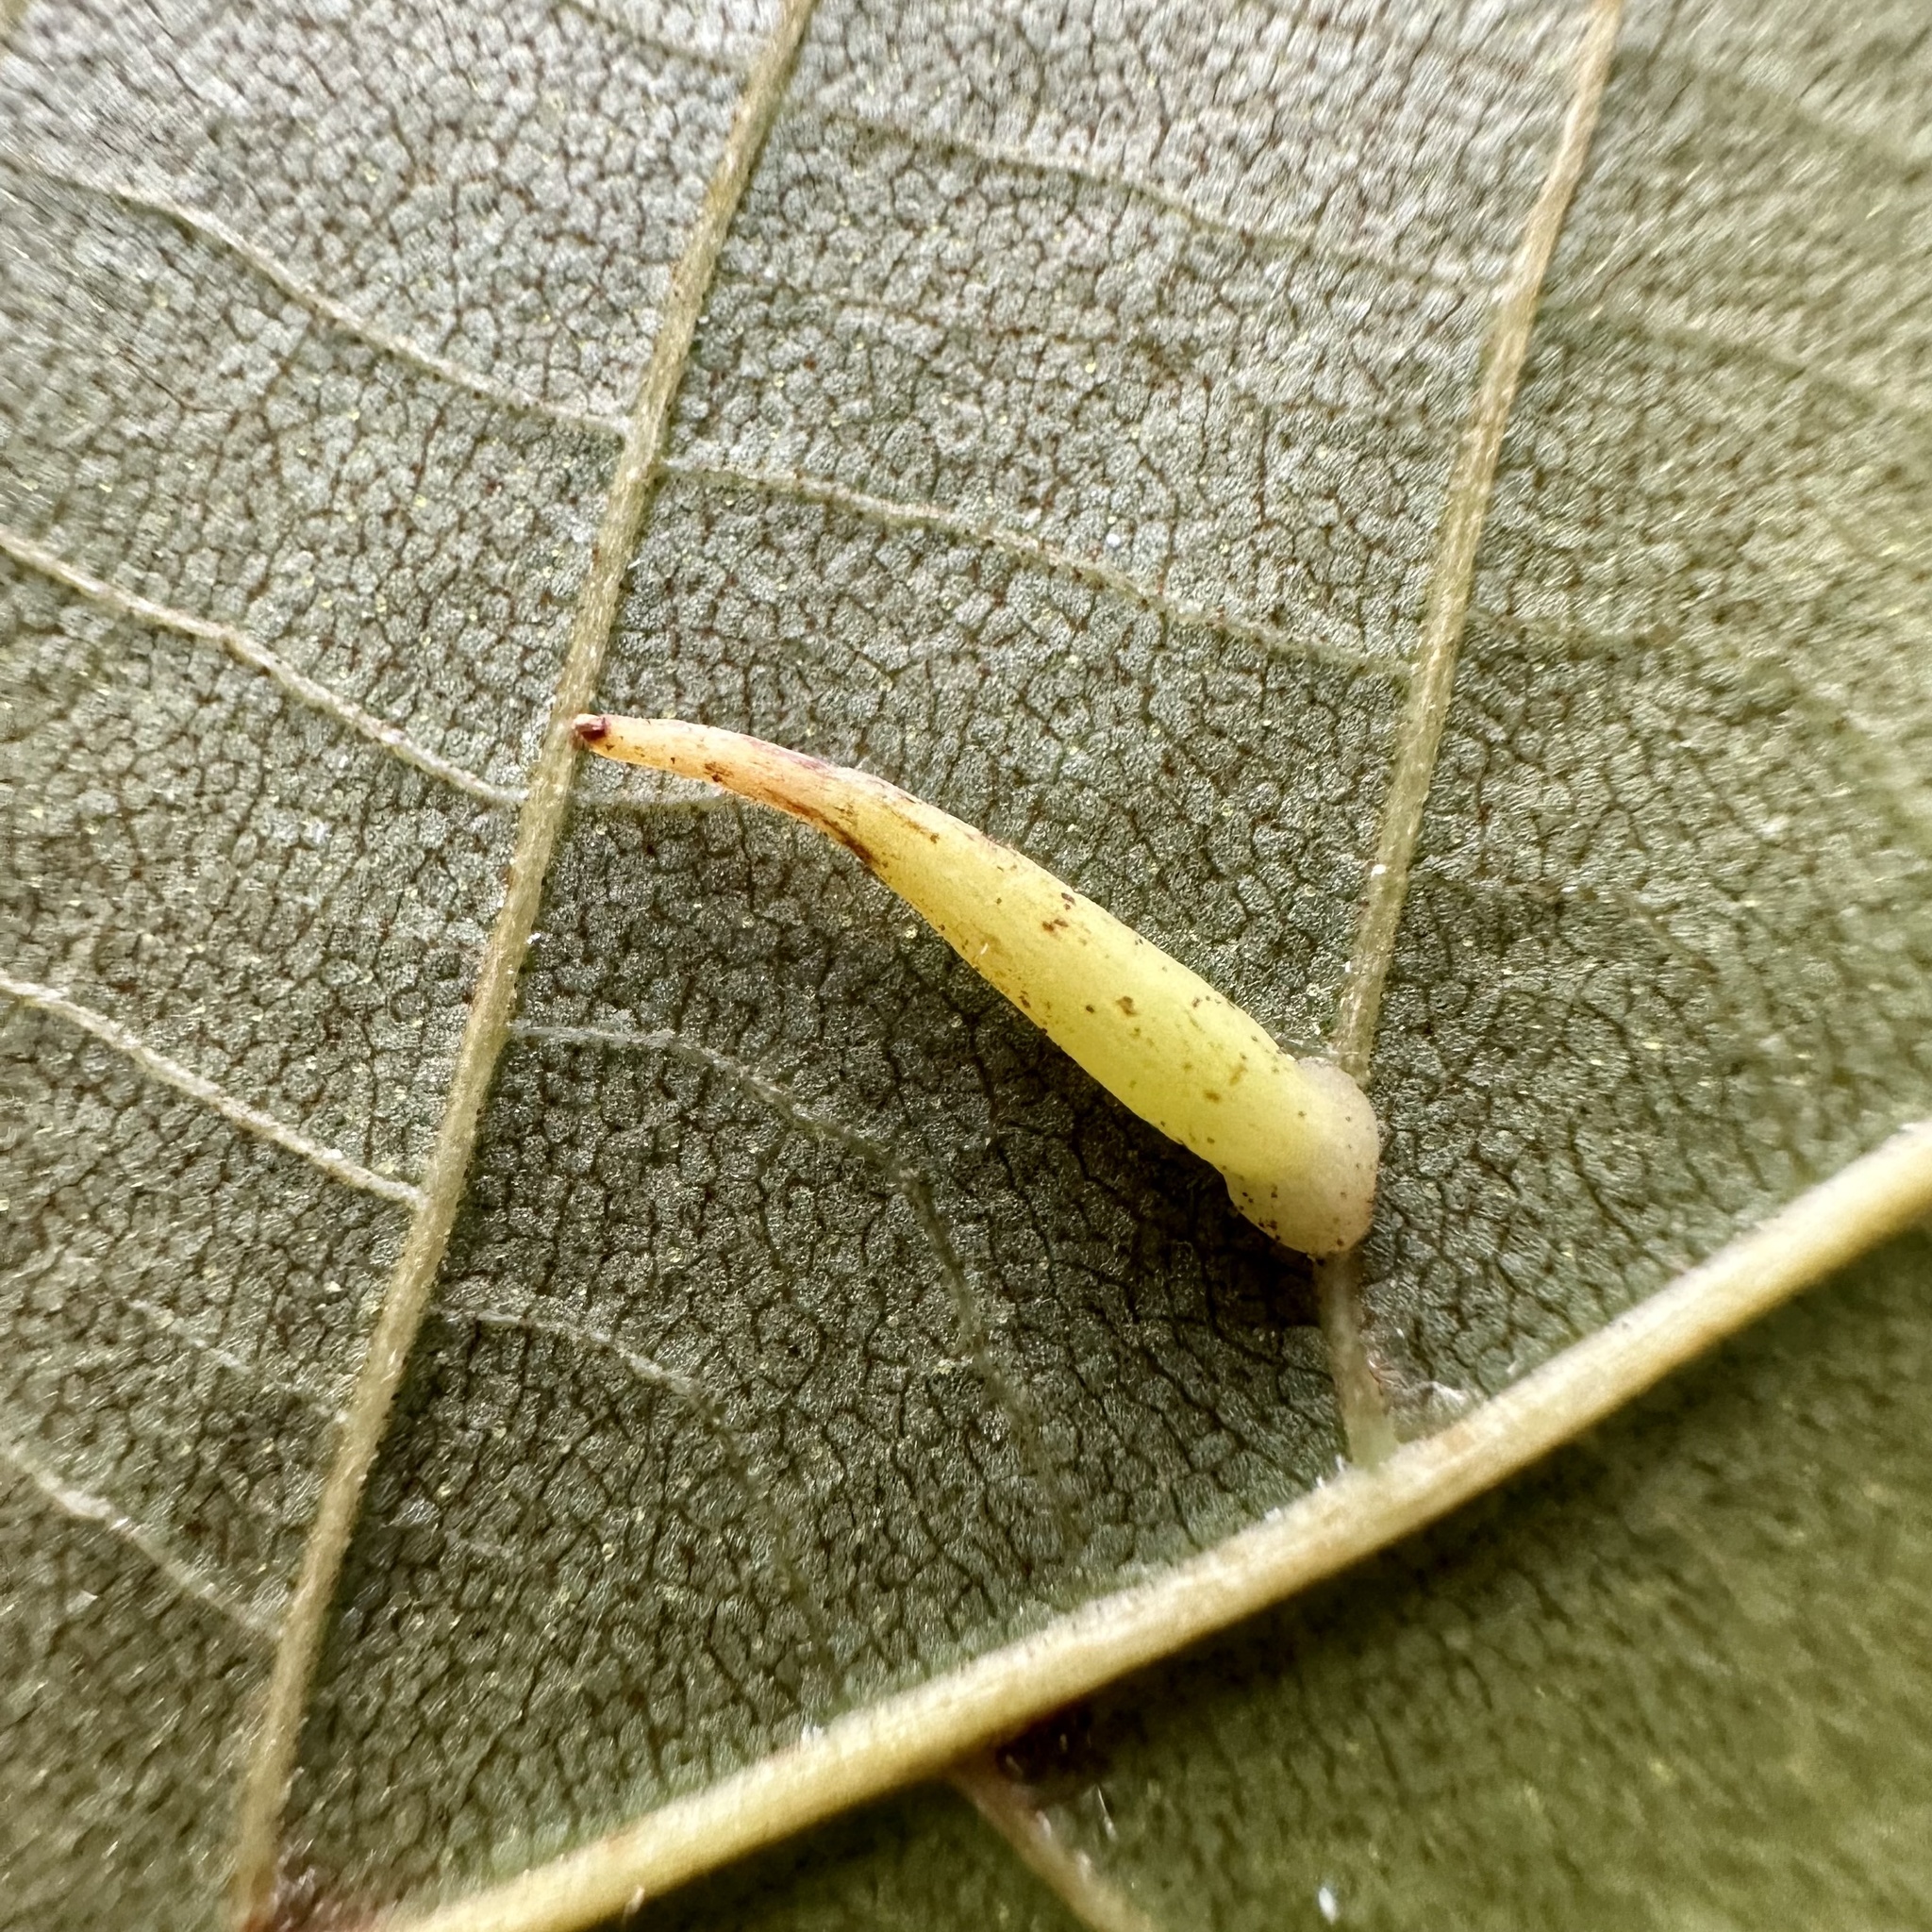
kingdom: Animalia
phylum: Arthropoda
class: Insecta
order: Diptera
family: Cecidomyiidae
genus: Caryomyia
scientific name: Caryomyia
